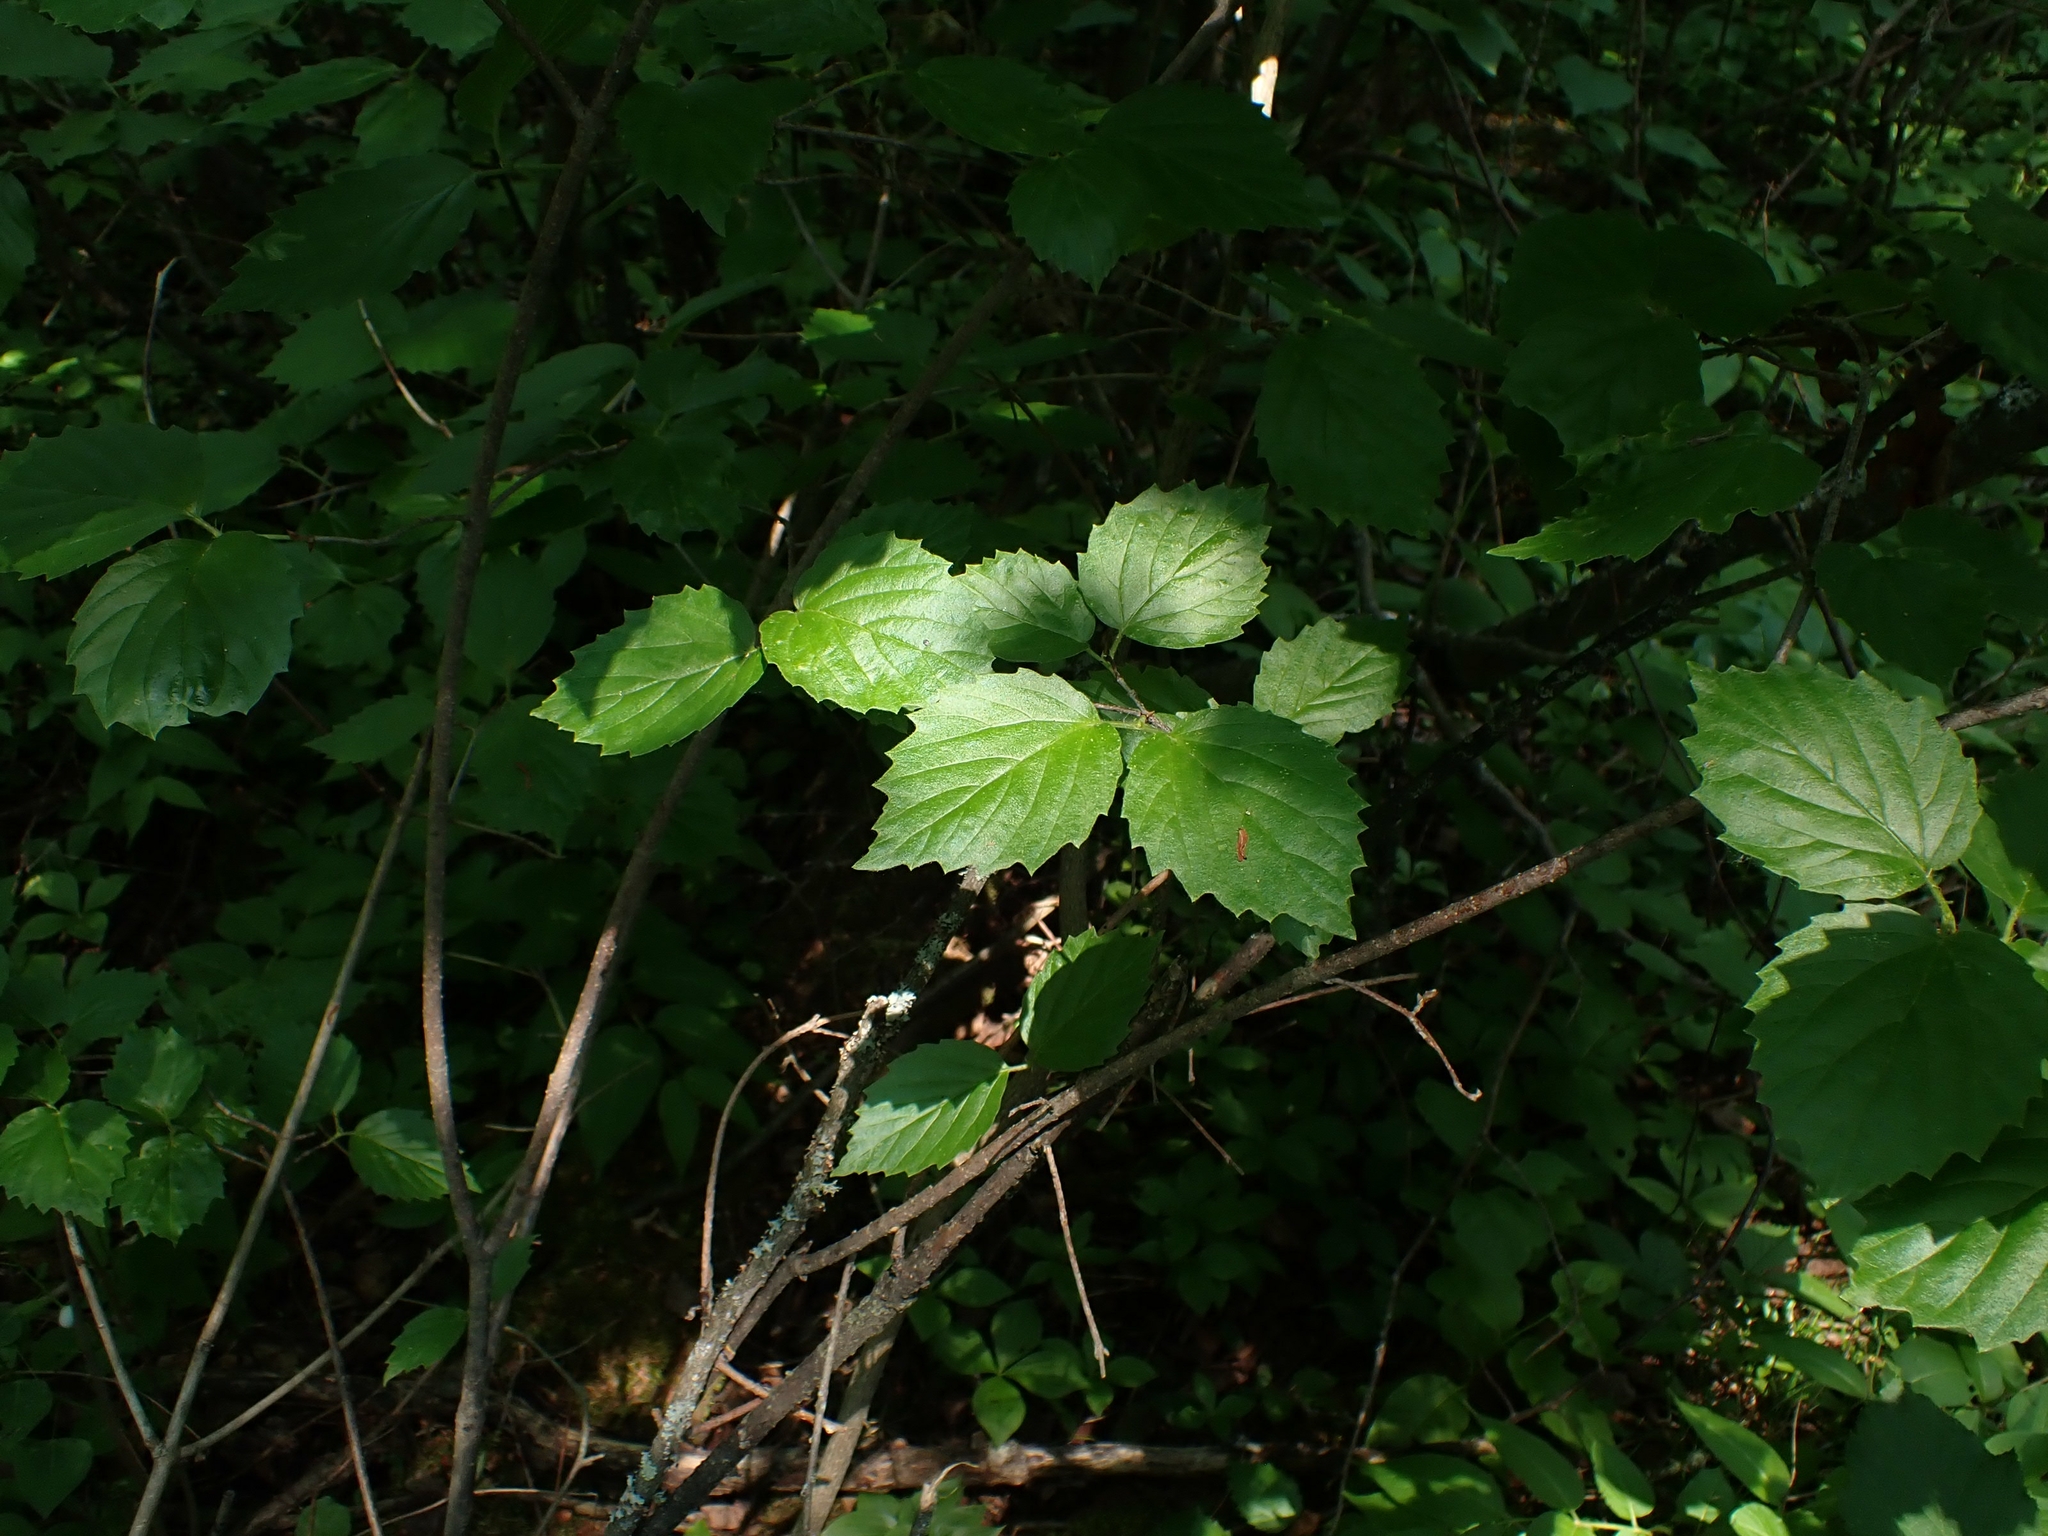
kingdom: Plantae
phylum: Tracheophyta
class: Magnoliopsida
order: Dipsacales
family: Viburnaceae
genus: Viburnum
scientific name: Viburnum rafinesqueanum
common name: Downy arrow-wood
